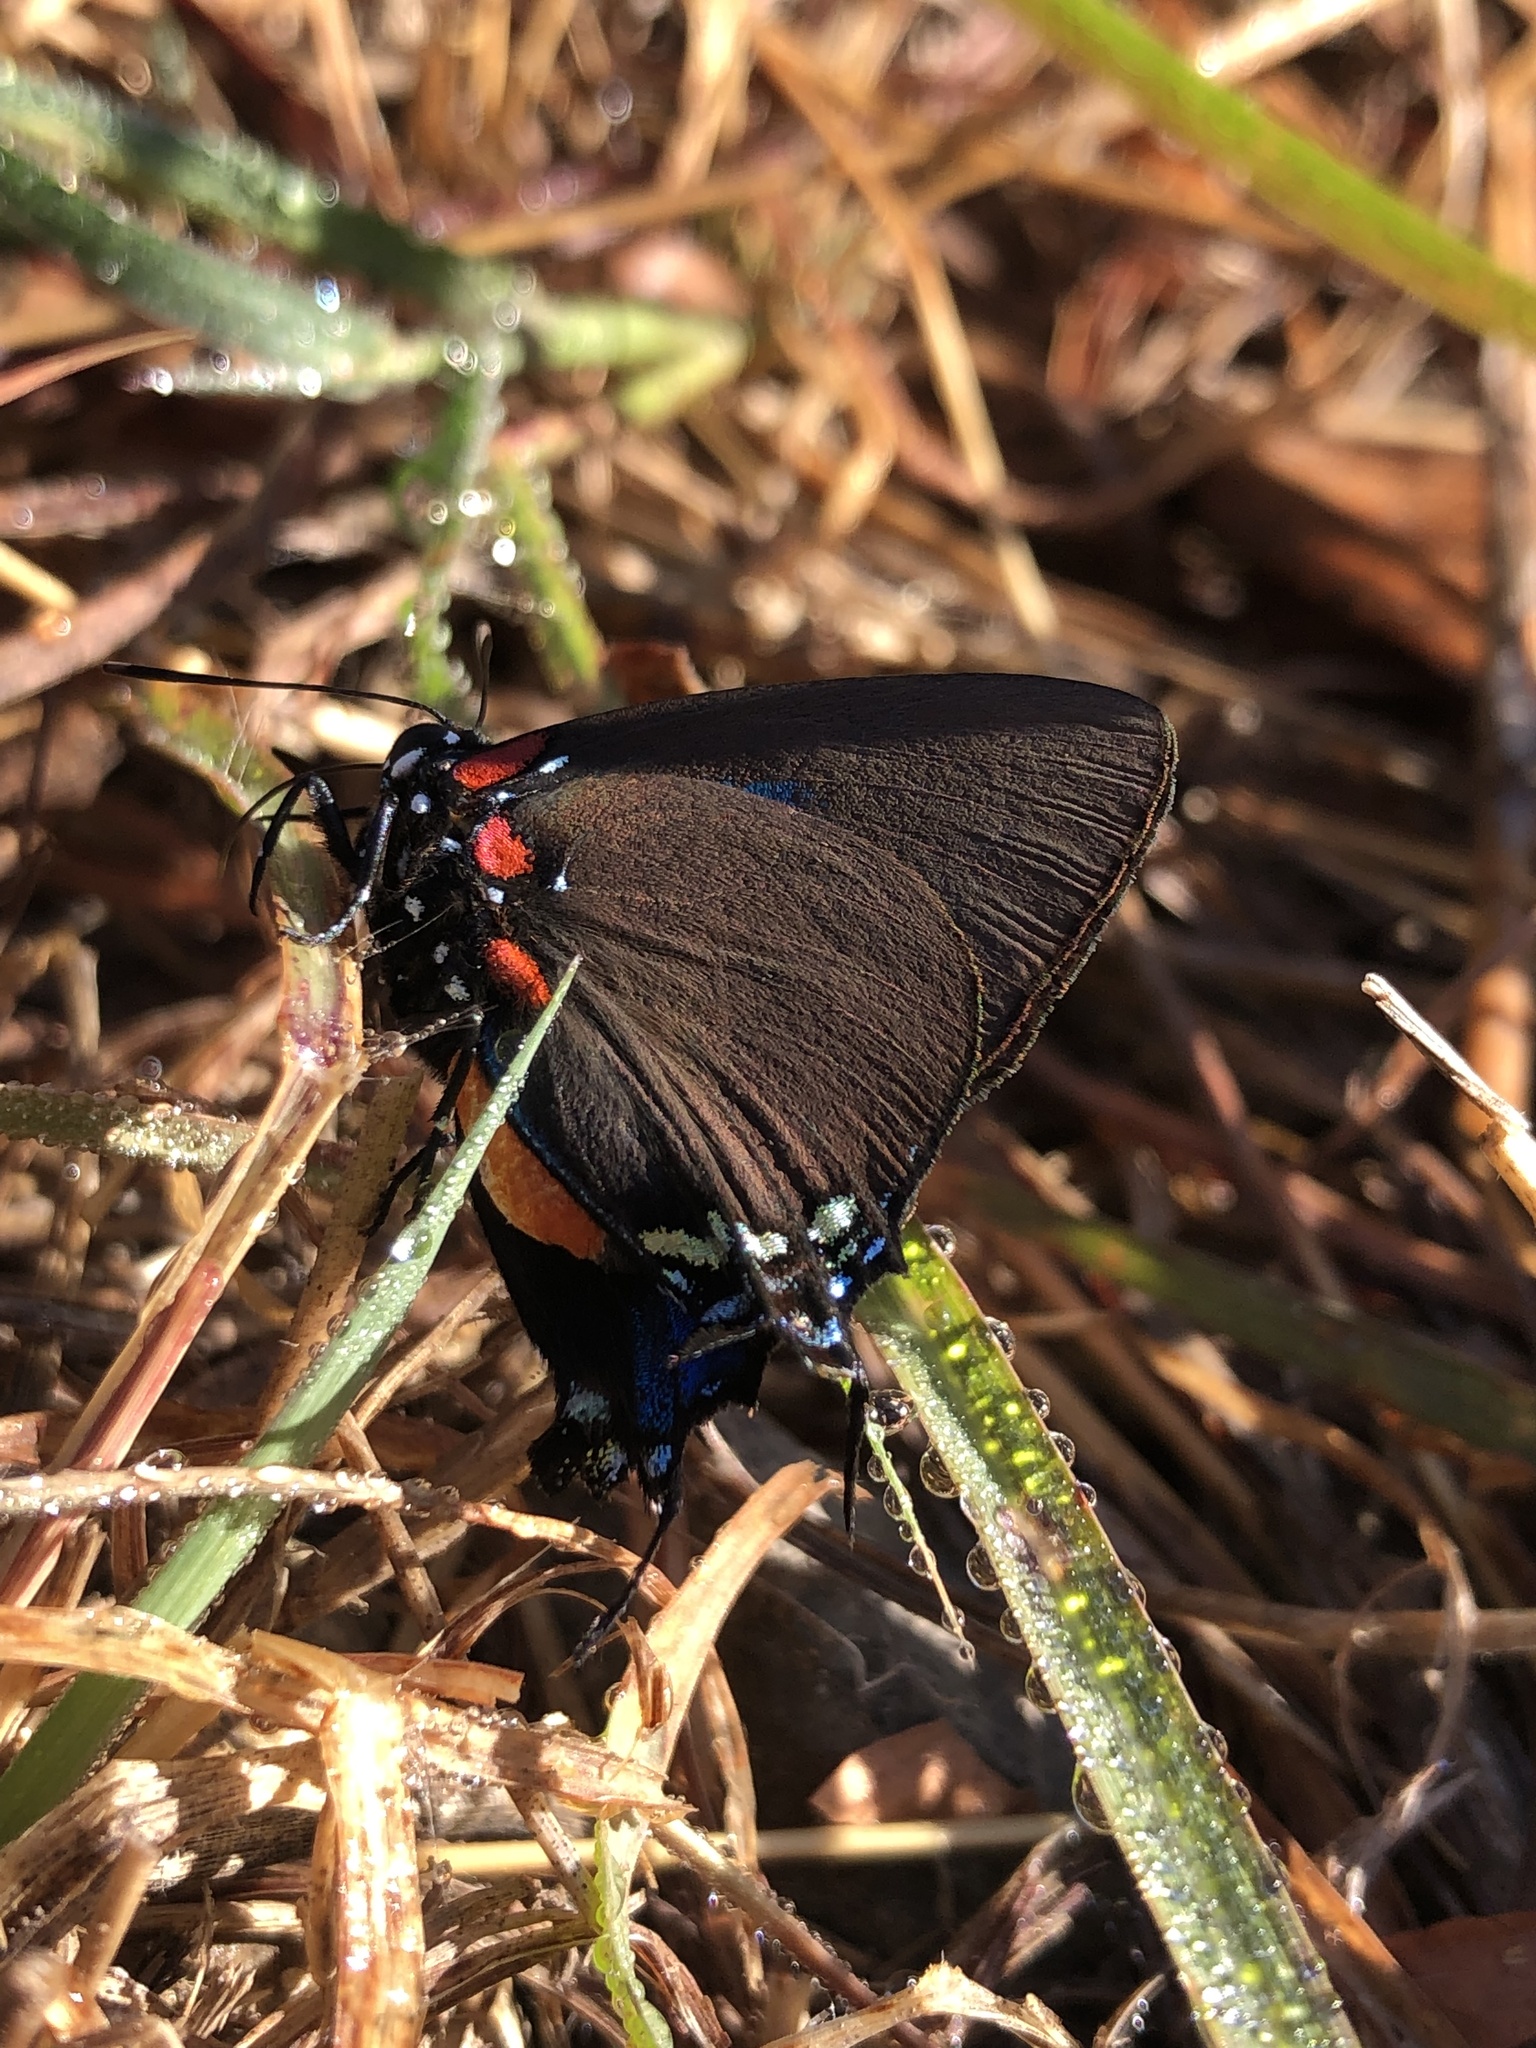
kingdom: Animalia
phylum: Arthropoda
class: Insecta
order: Lepidoptera
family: Lycaenidae
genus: Atlides
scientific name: Atlides halesus
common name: Great purple hairstreak
